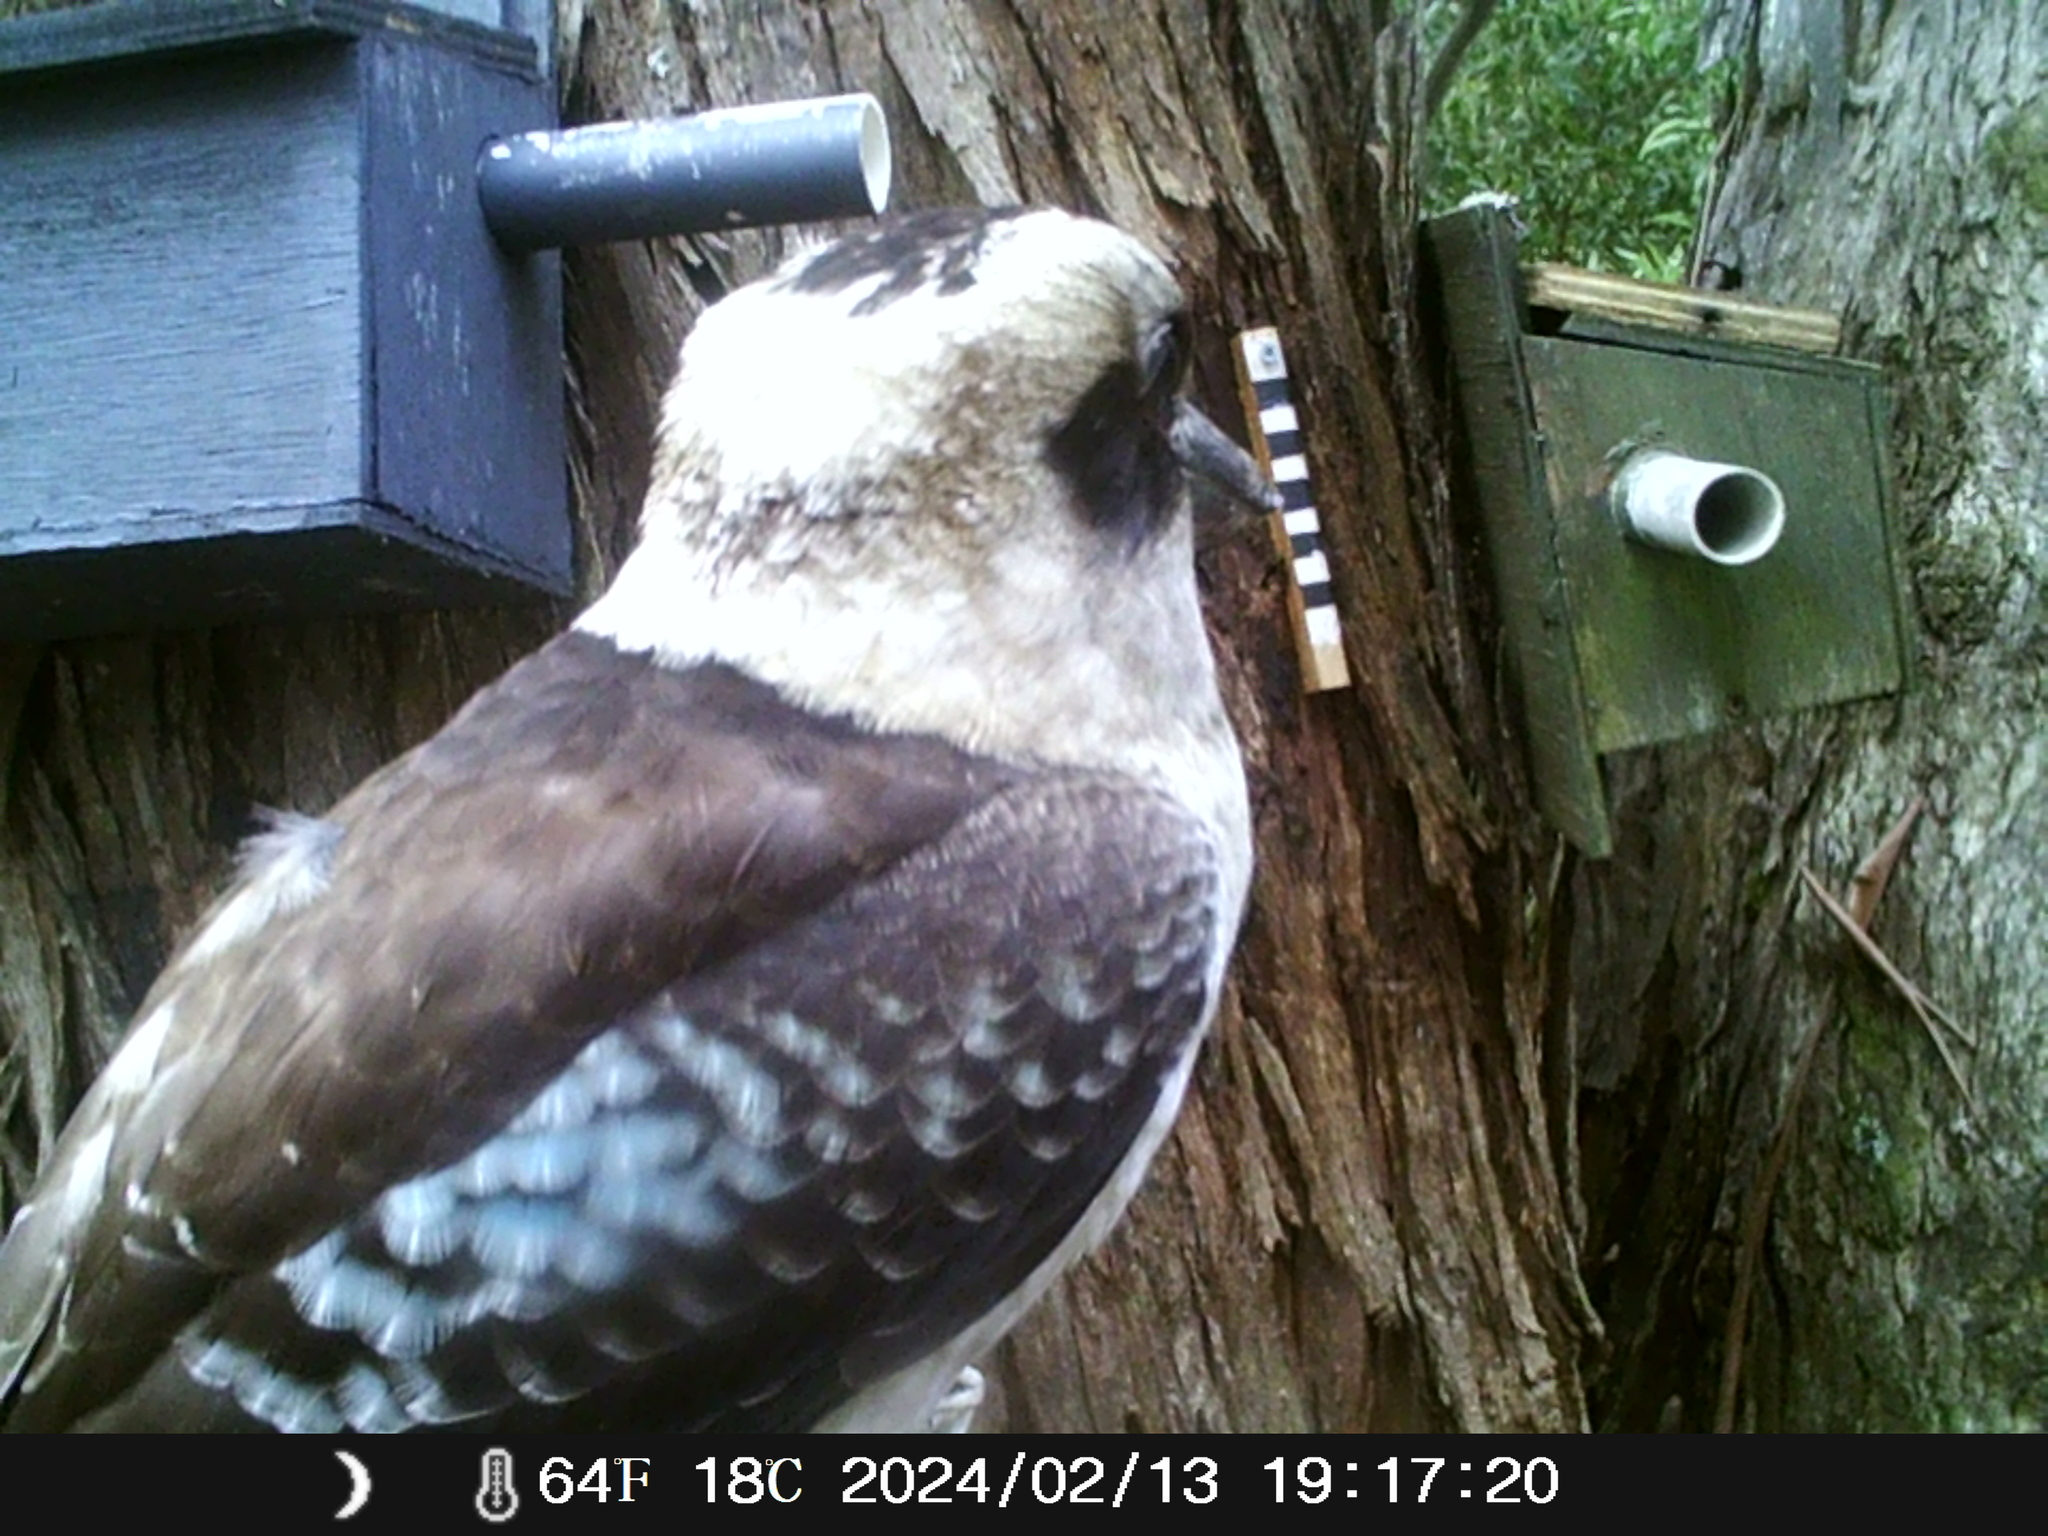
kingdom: Animalia
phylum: Chordata
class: Aves
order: Coraciiformes
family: Alcedinidae
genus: Dacelo
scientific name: Dacelo novaeguineae
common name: Laughing kookaburra
